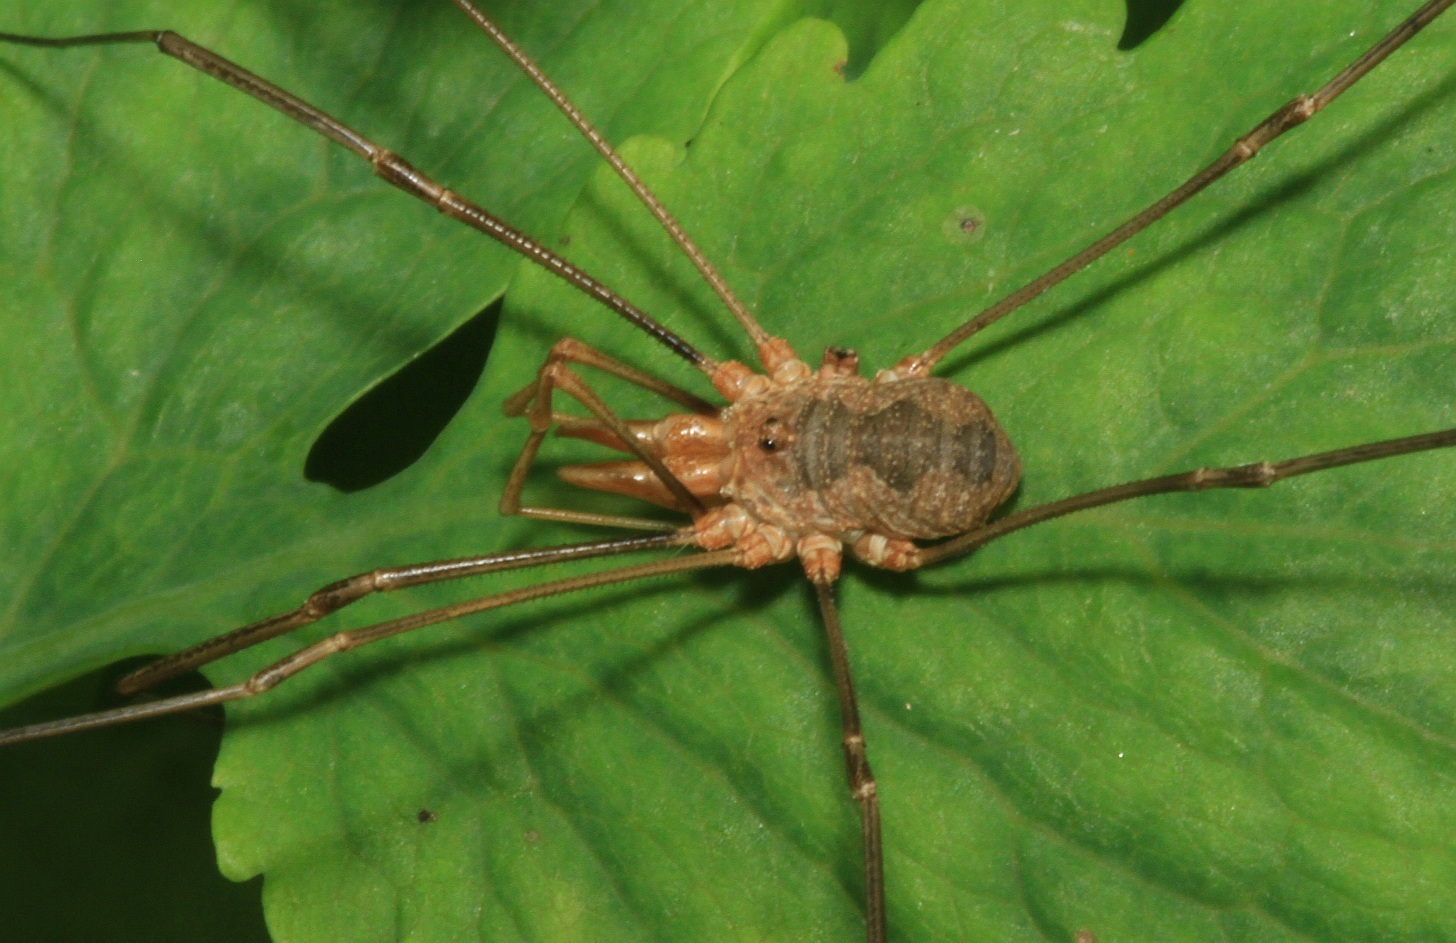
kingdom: Animalia
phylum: Arthropoda
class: Arachnida
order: Opiliones
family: Phalangiidae
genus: Phalangium
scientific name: Phalangium opilio
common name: Daddy longleg
